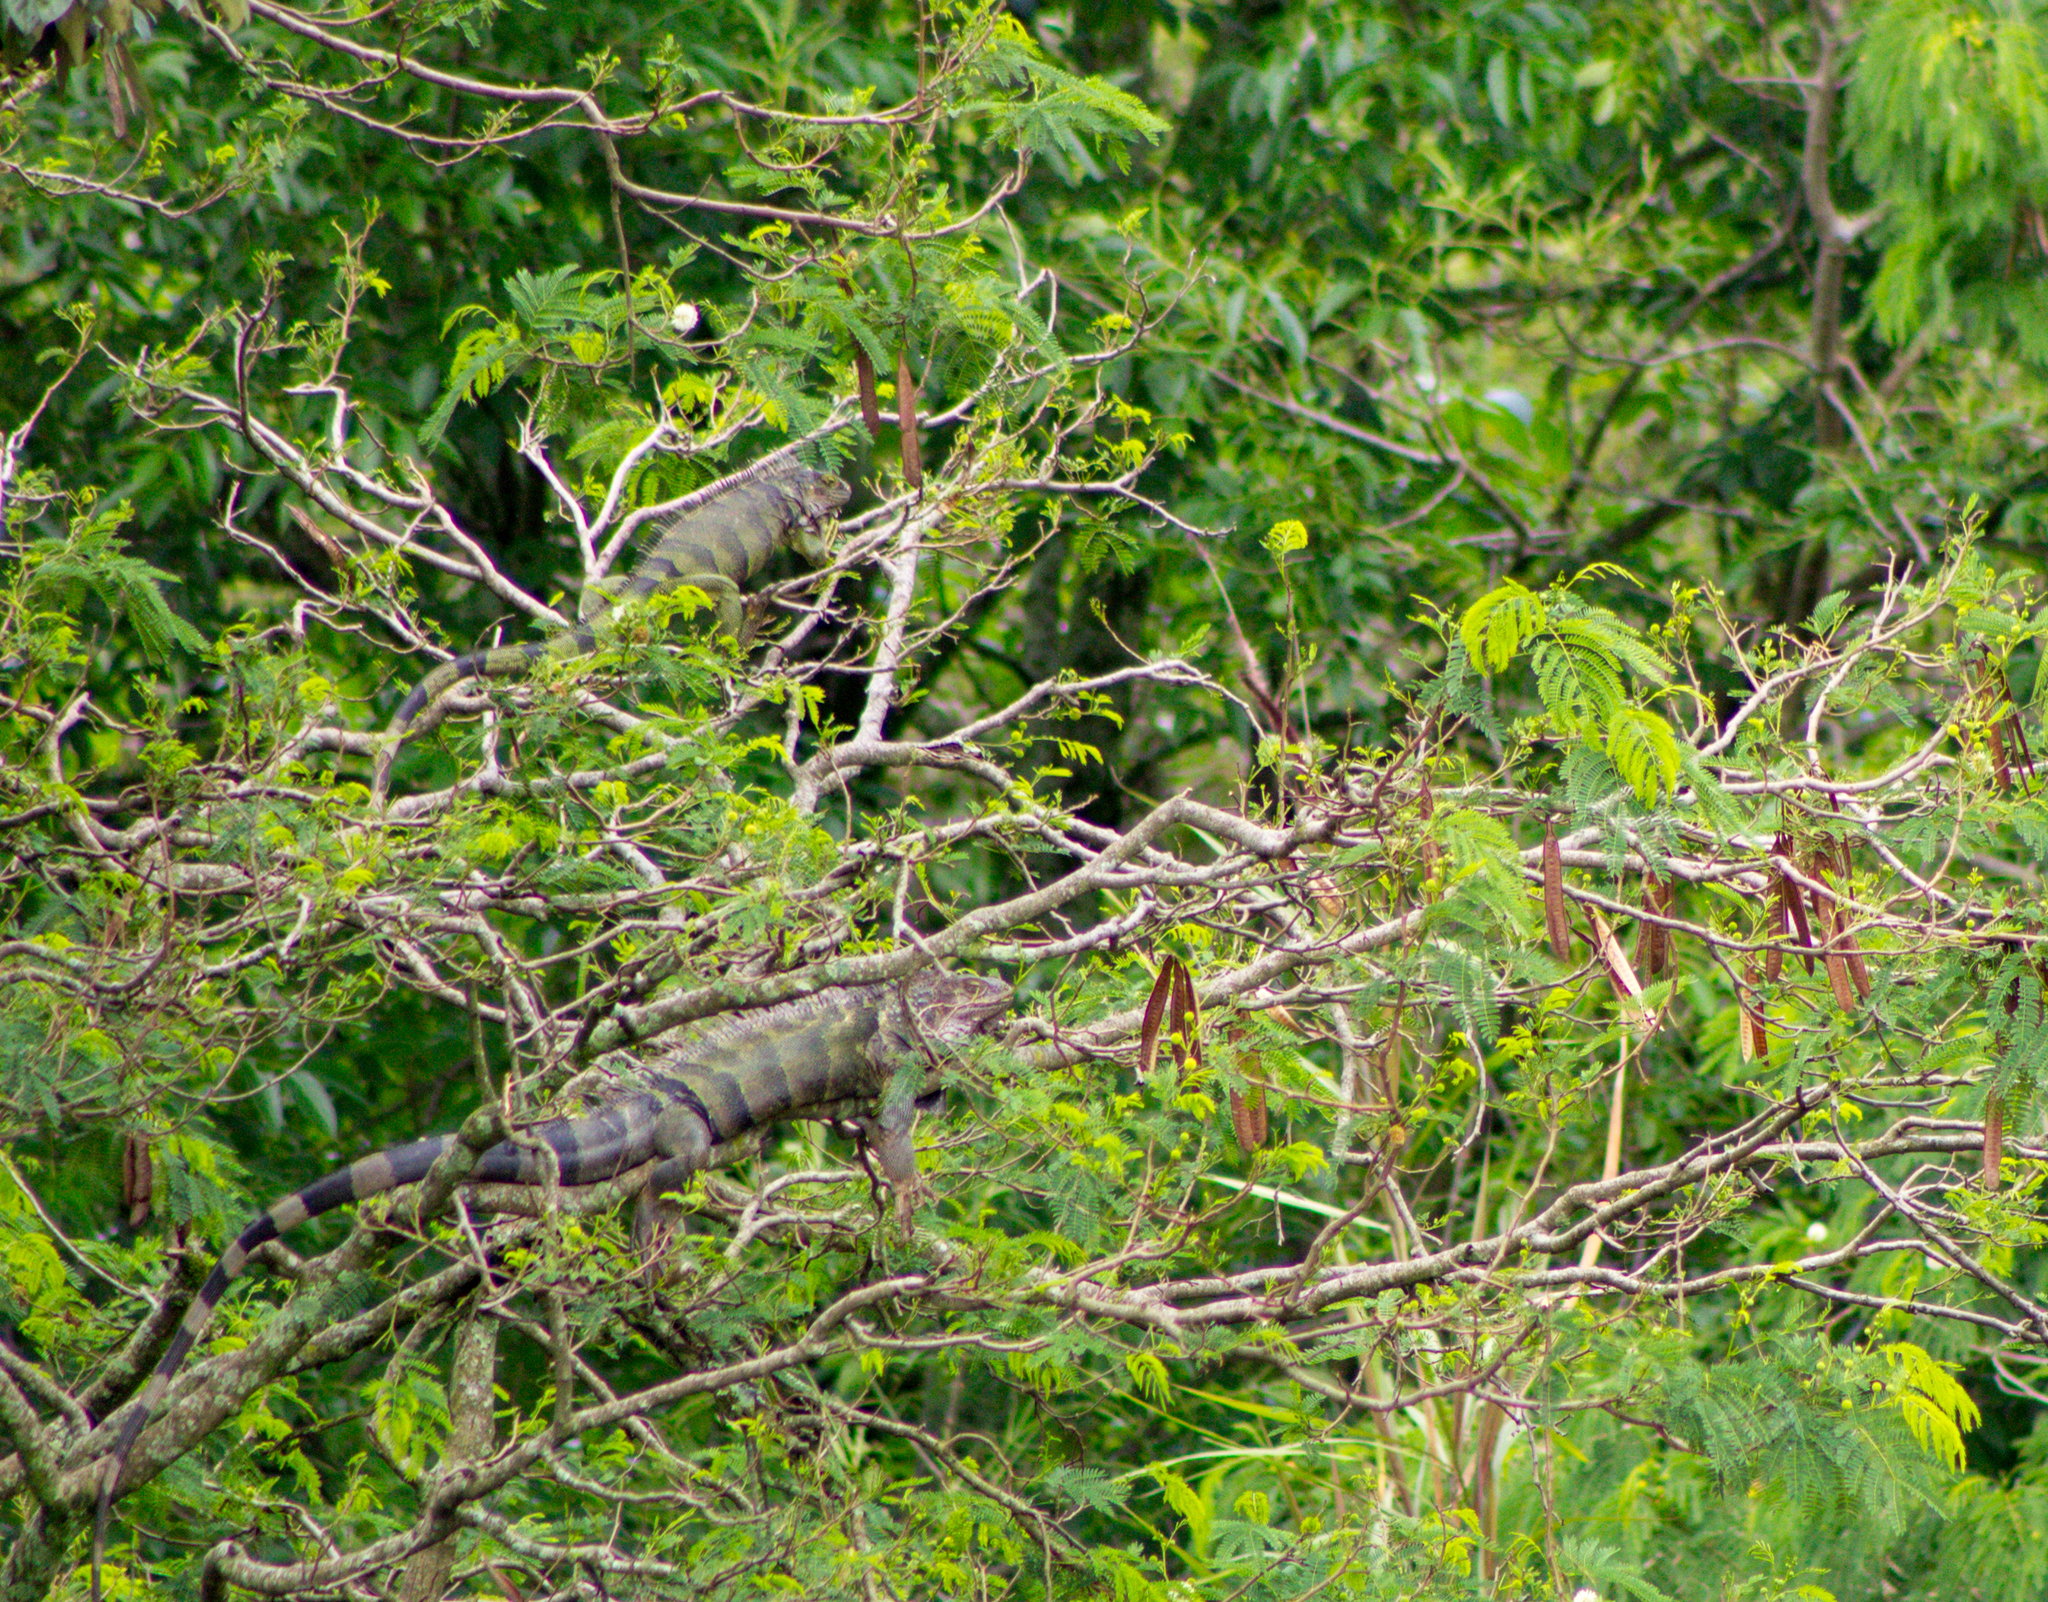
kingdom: Animalia
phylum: Chordata
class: Squamata
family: Iguanidae
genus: Iguana
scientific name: Iguana iguana
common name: Green iguana
